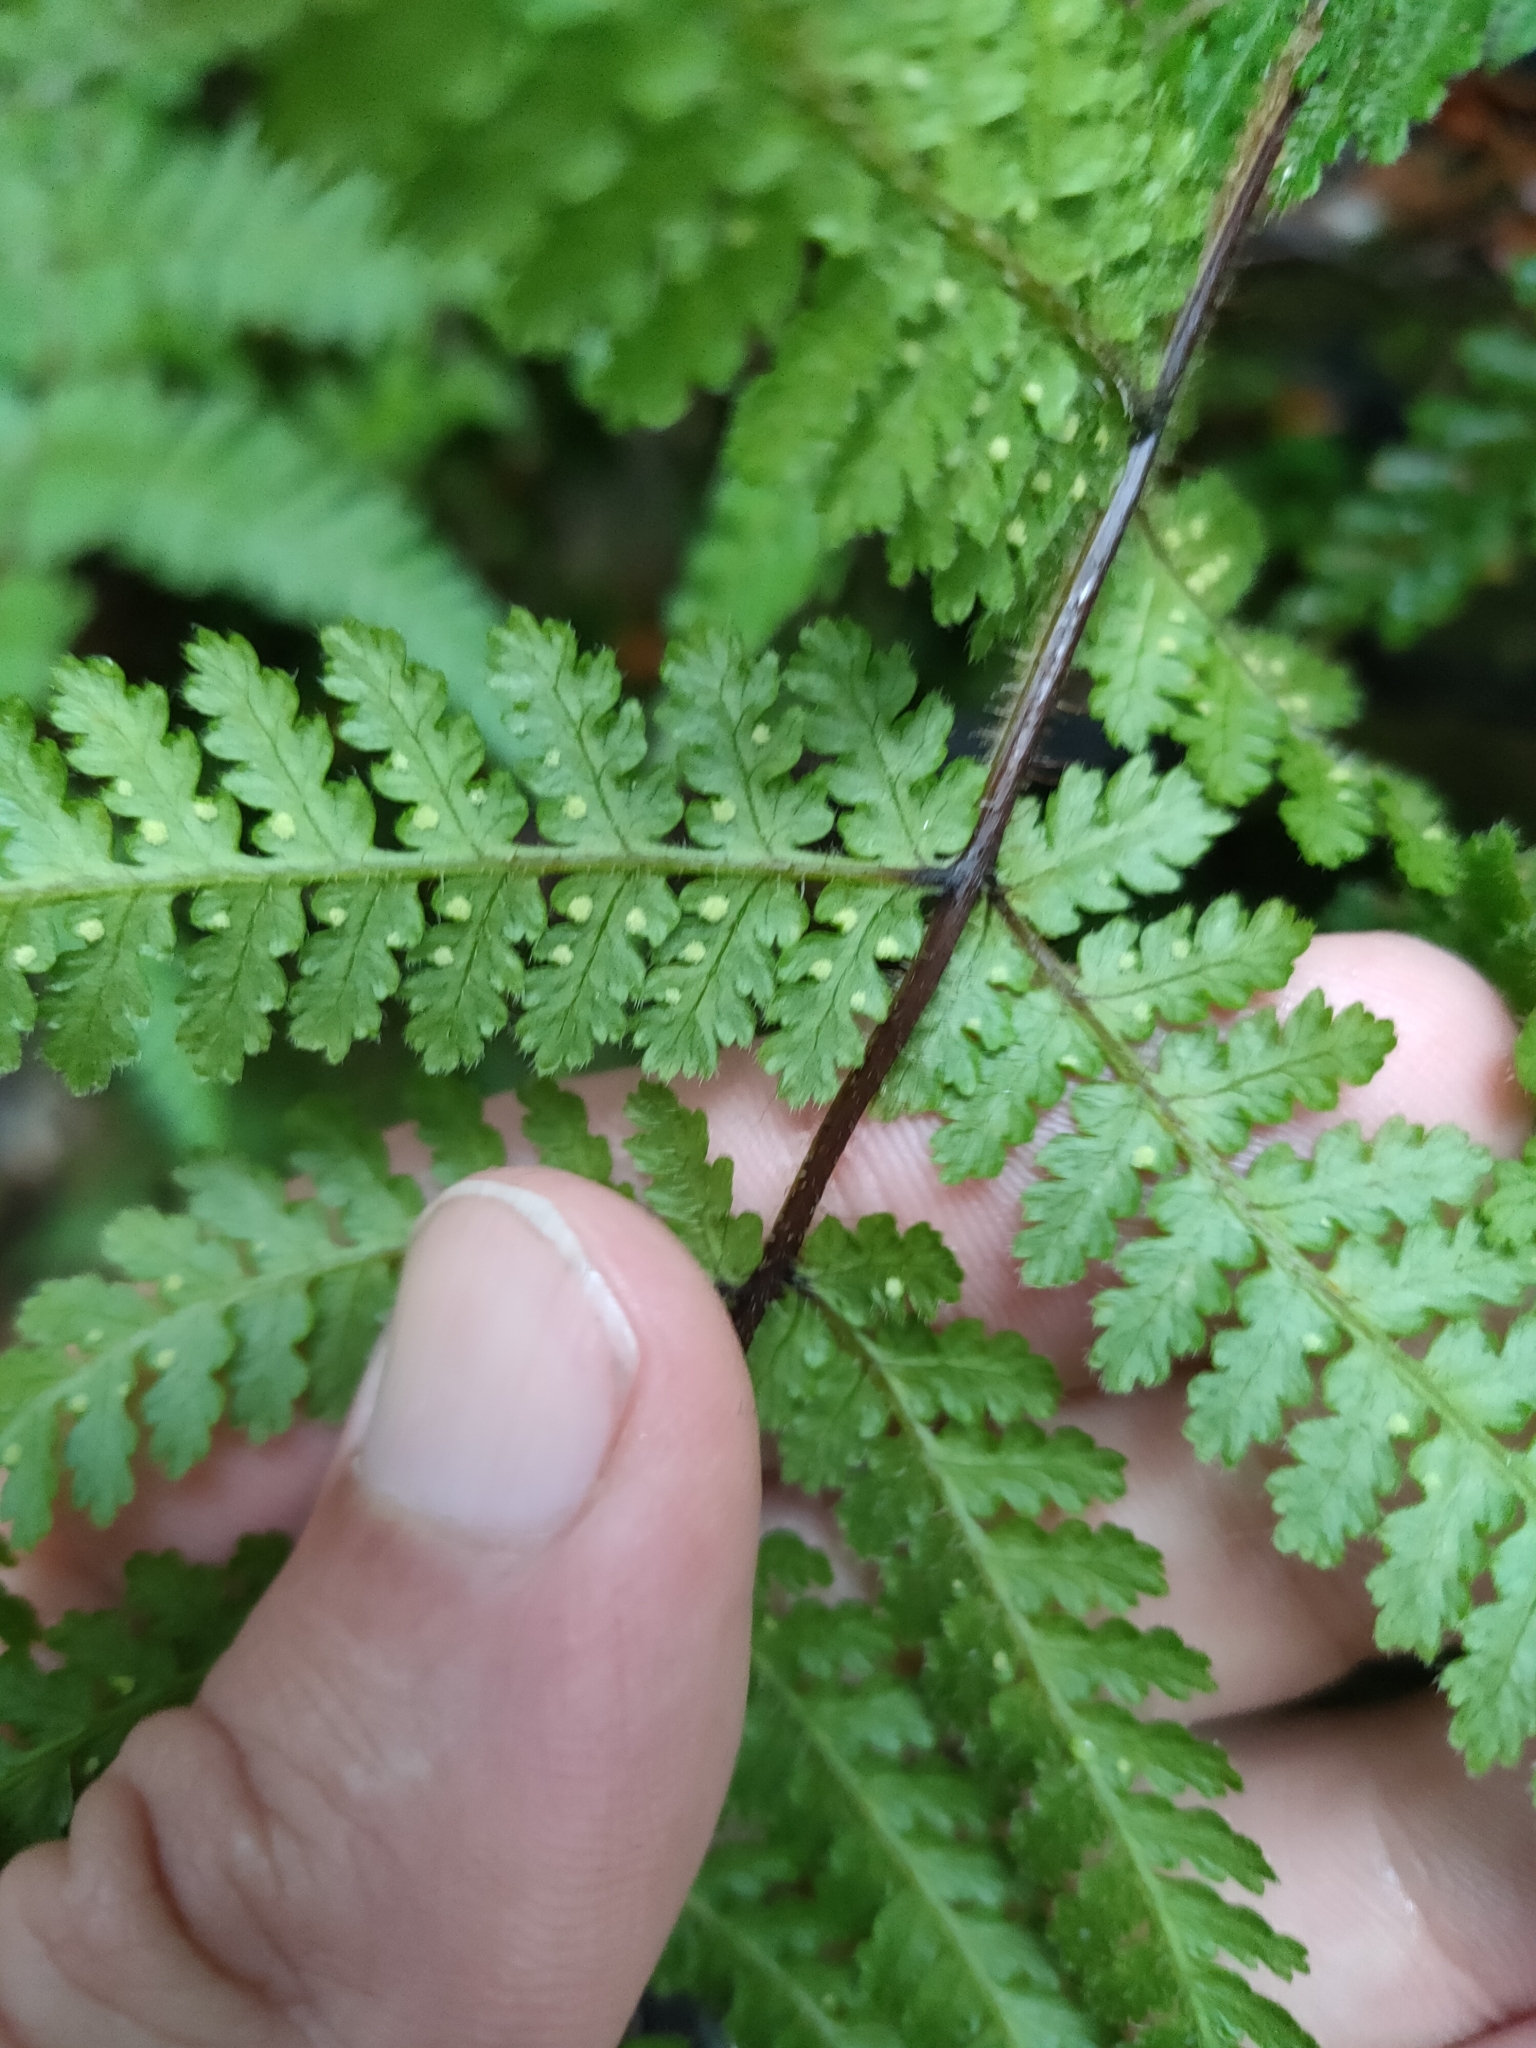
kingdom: Plantae
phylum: Tracheophyta
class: Polypodiopsida
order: Polypodiales
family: Dennstaedtiaceae
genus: Hypolepis
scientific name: Hypolepis rugosula
